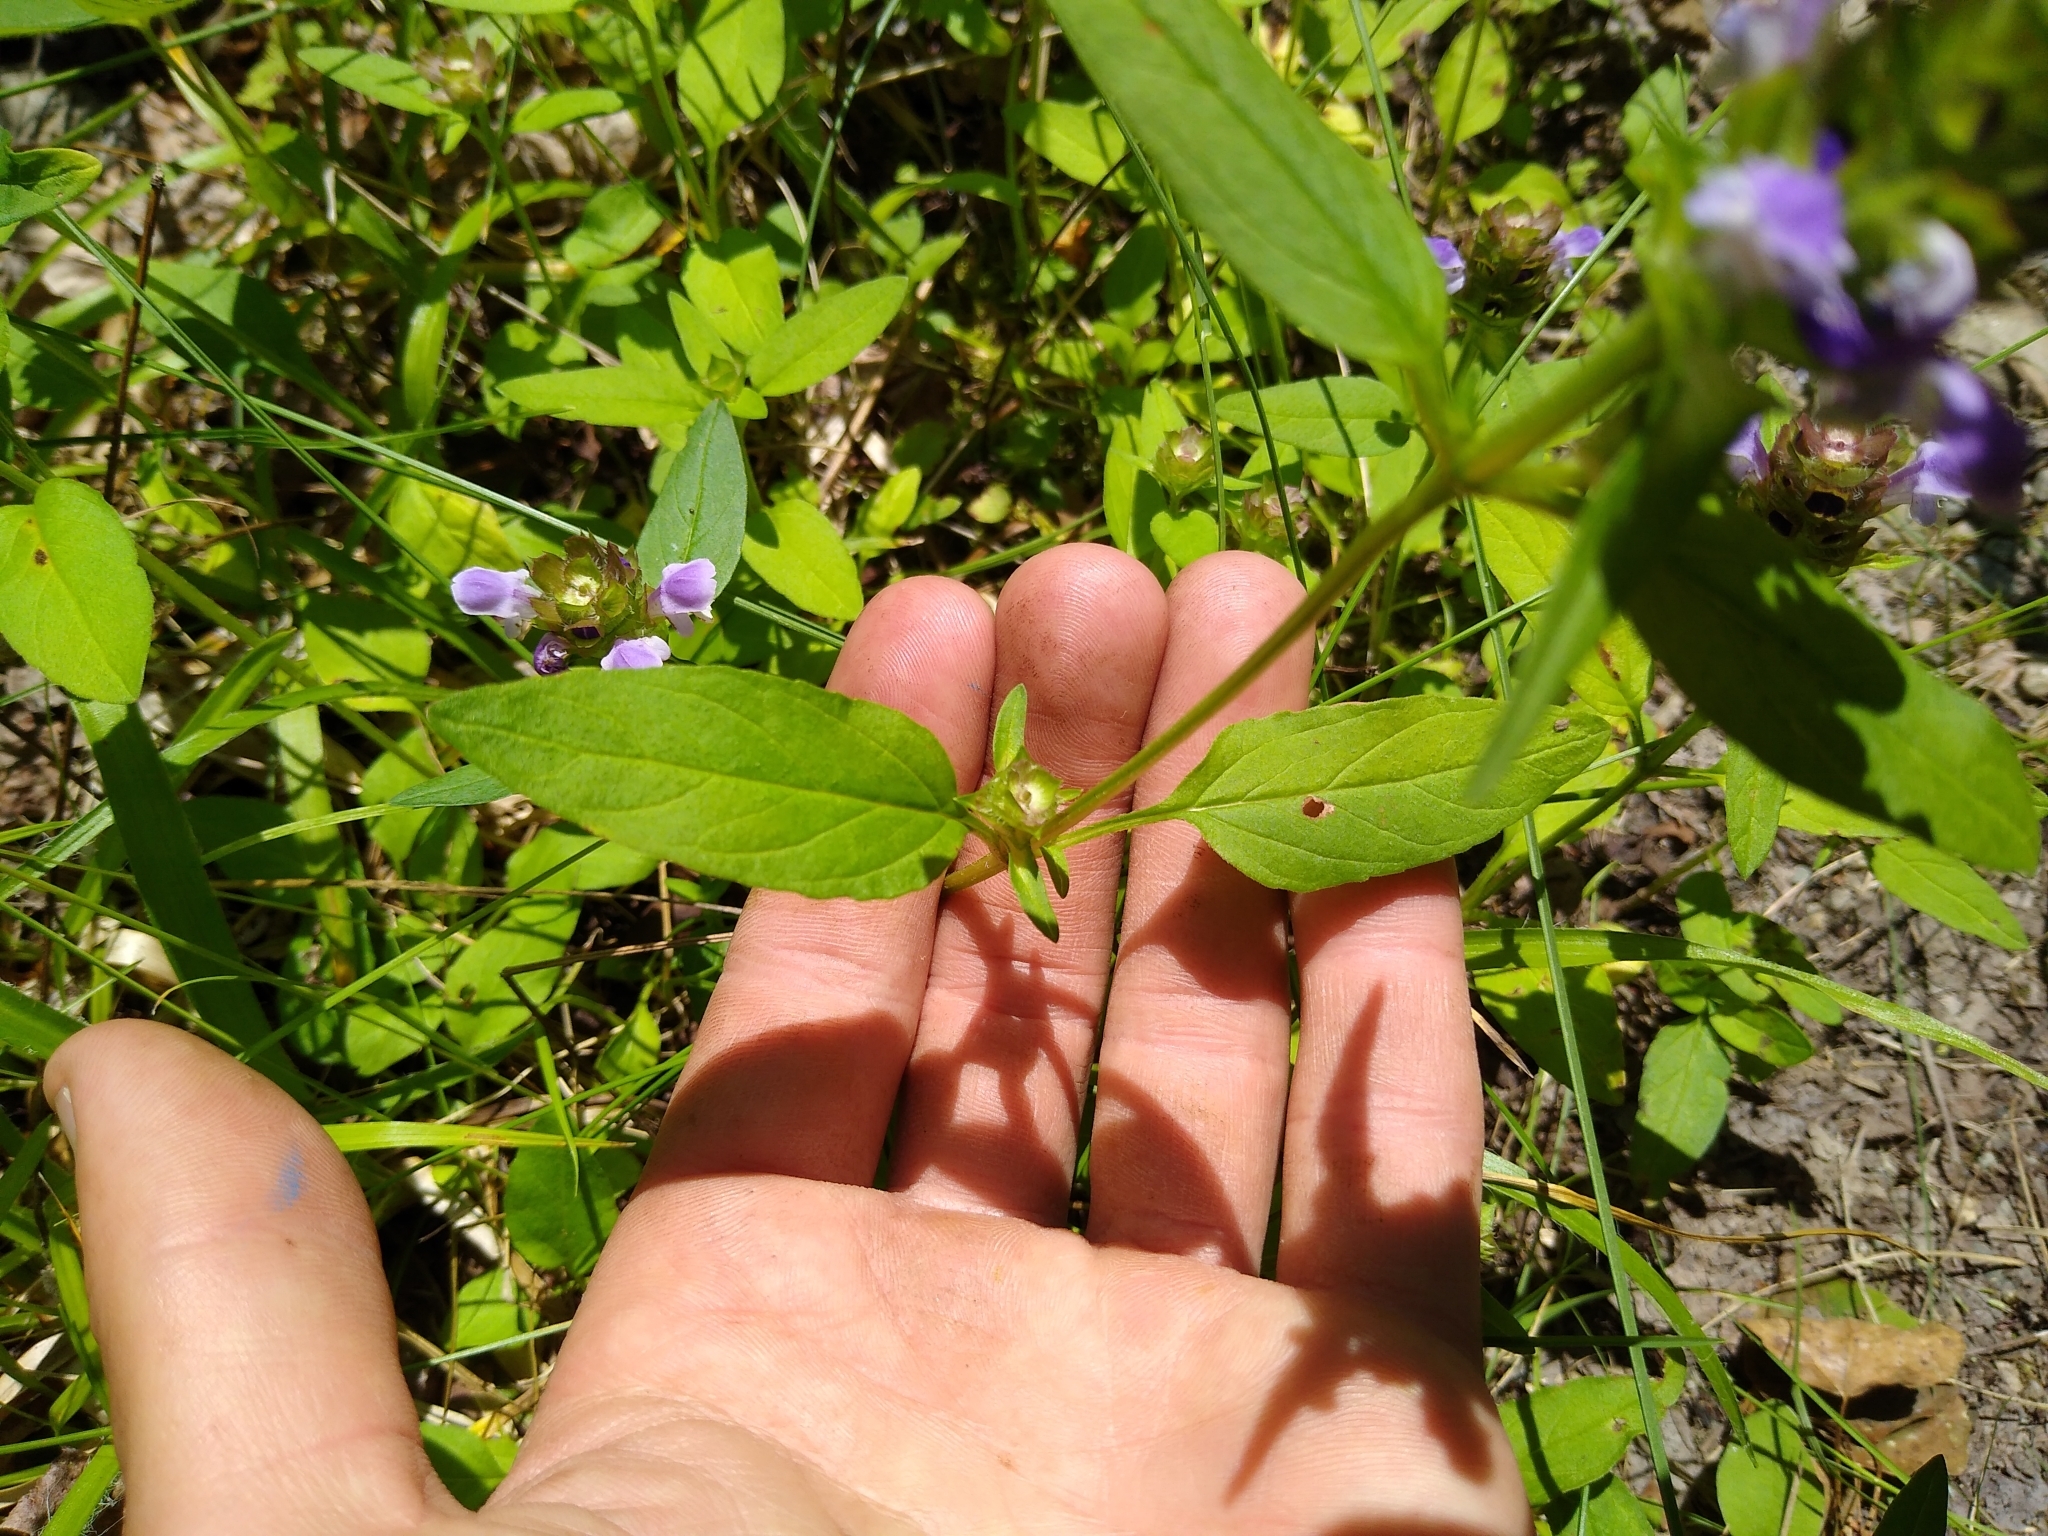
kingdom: Plantae
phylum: Tracheophyta
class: Magnoliopsida
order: Lamiales
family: Lamiaceae
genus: Prunella
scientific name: Prunella vulgaris
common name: Heal-all
